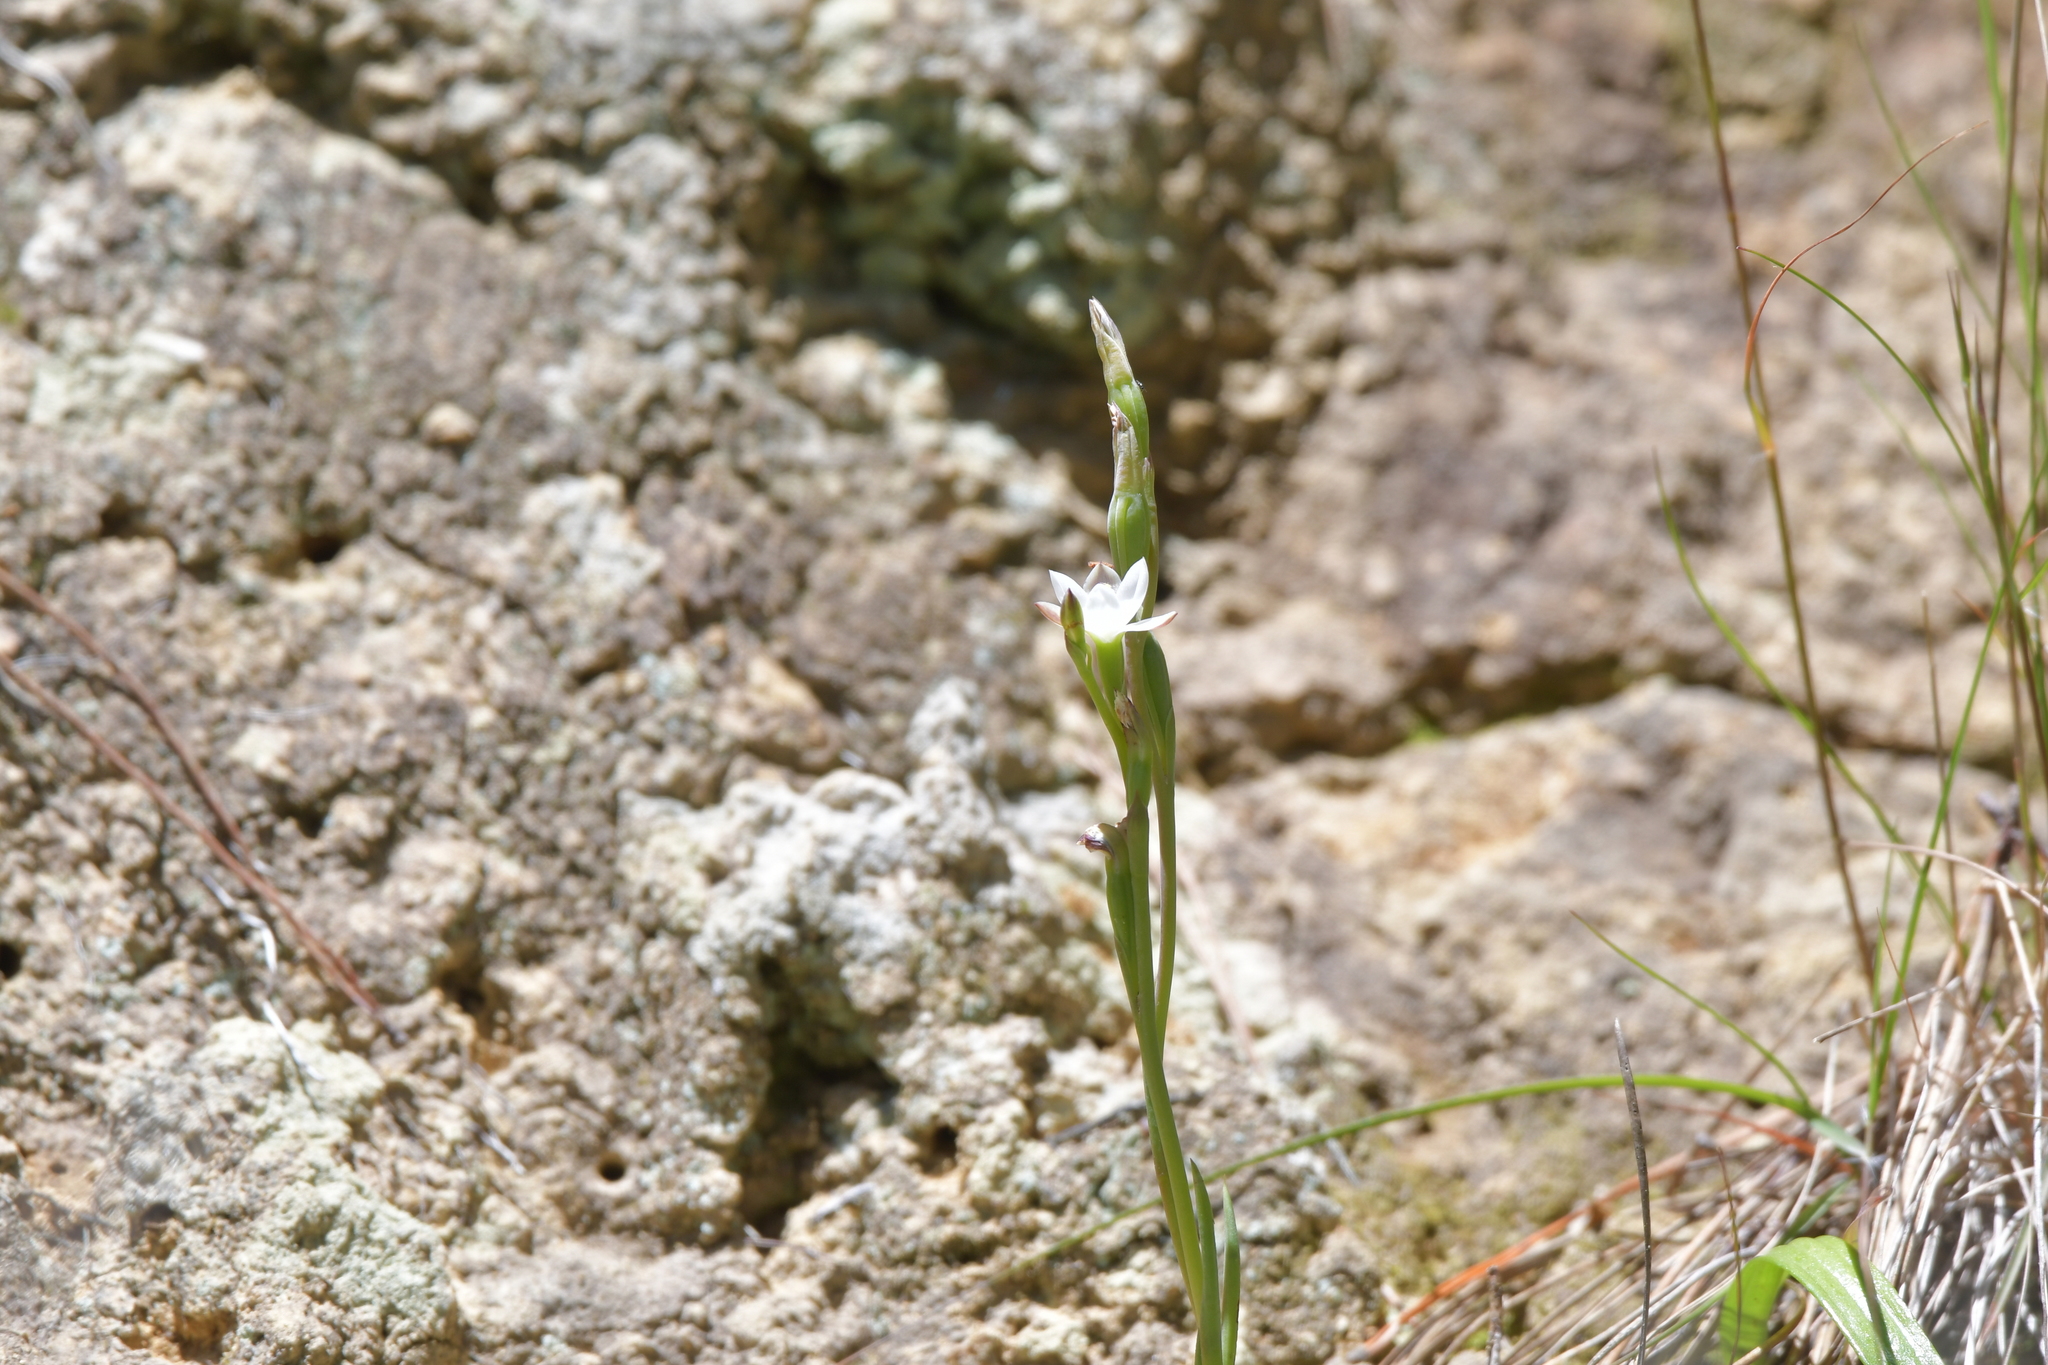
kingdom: Plantae
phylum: Tracheophyta
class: Liliopsida
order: Asparagales
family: Orchidaceae
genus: Thelymitra
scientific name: Thelymitra longifolia
